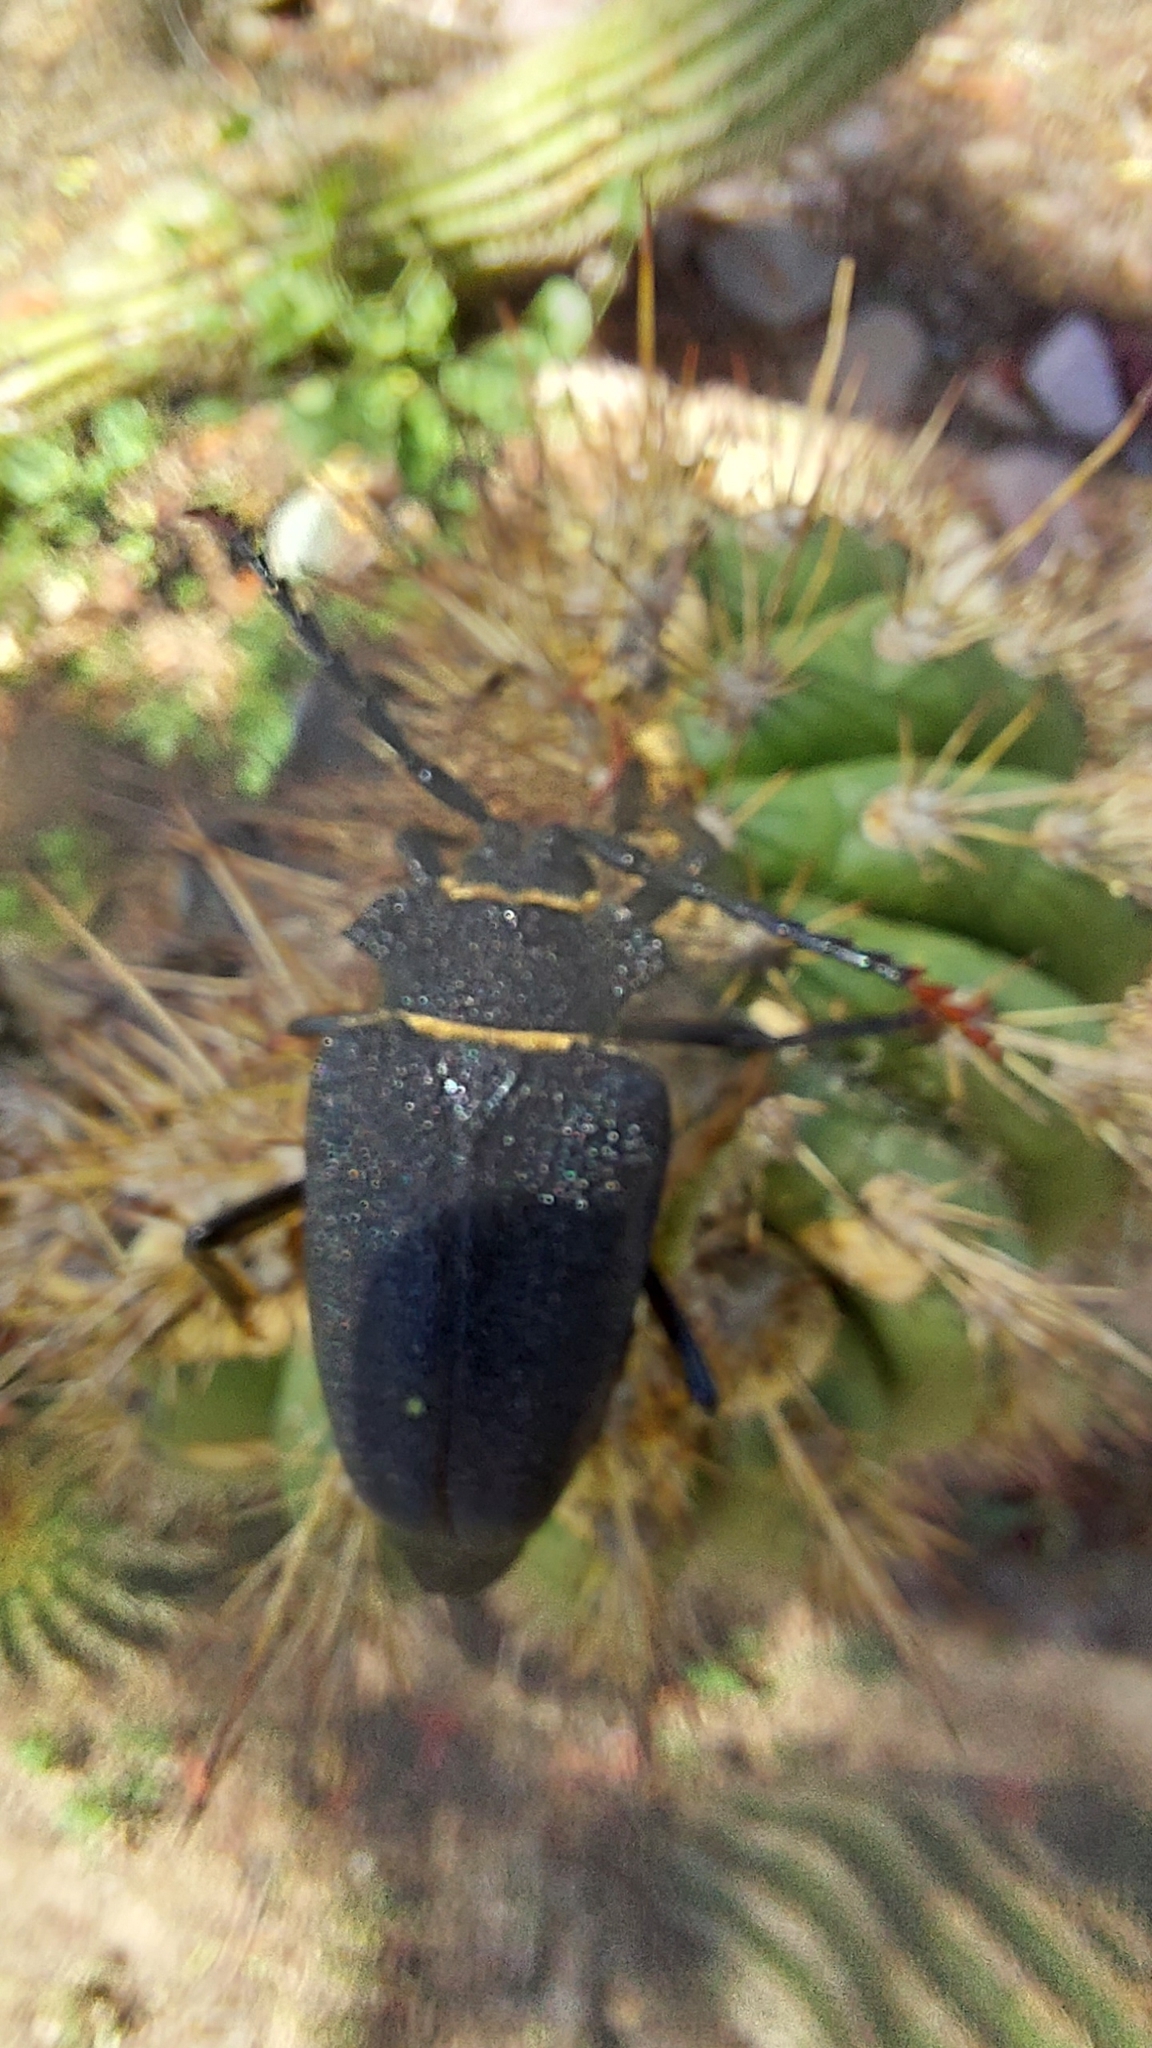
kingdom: Animalia
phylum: Arthropoda
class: Insecta
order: Coleoptera
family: Cerambycidae
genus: Calocomus
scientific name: Calocomus rugosipennis
